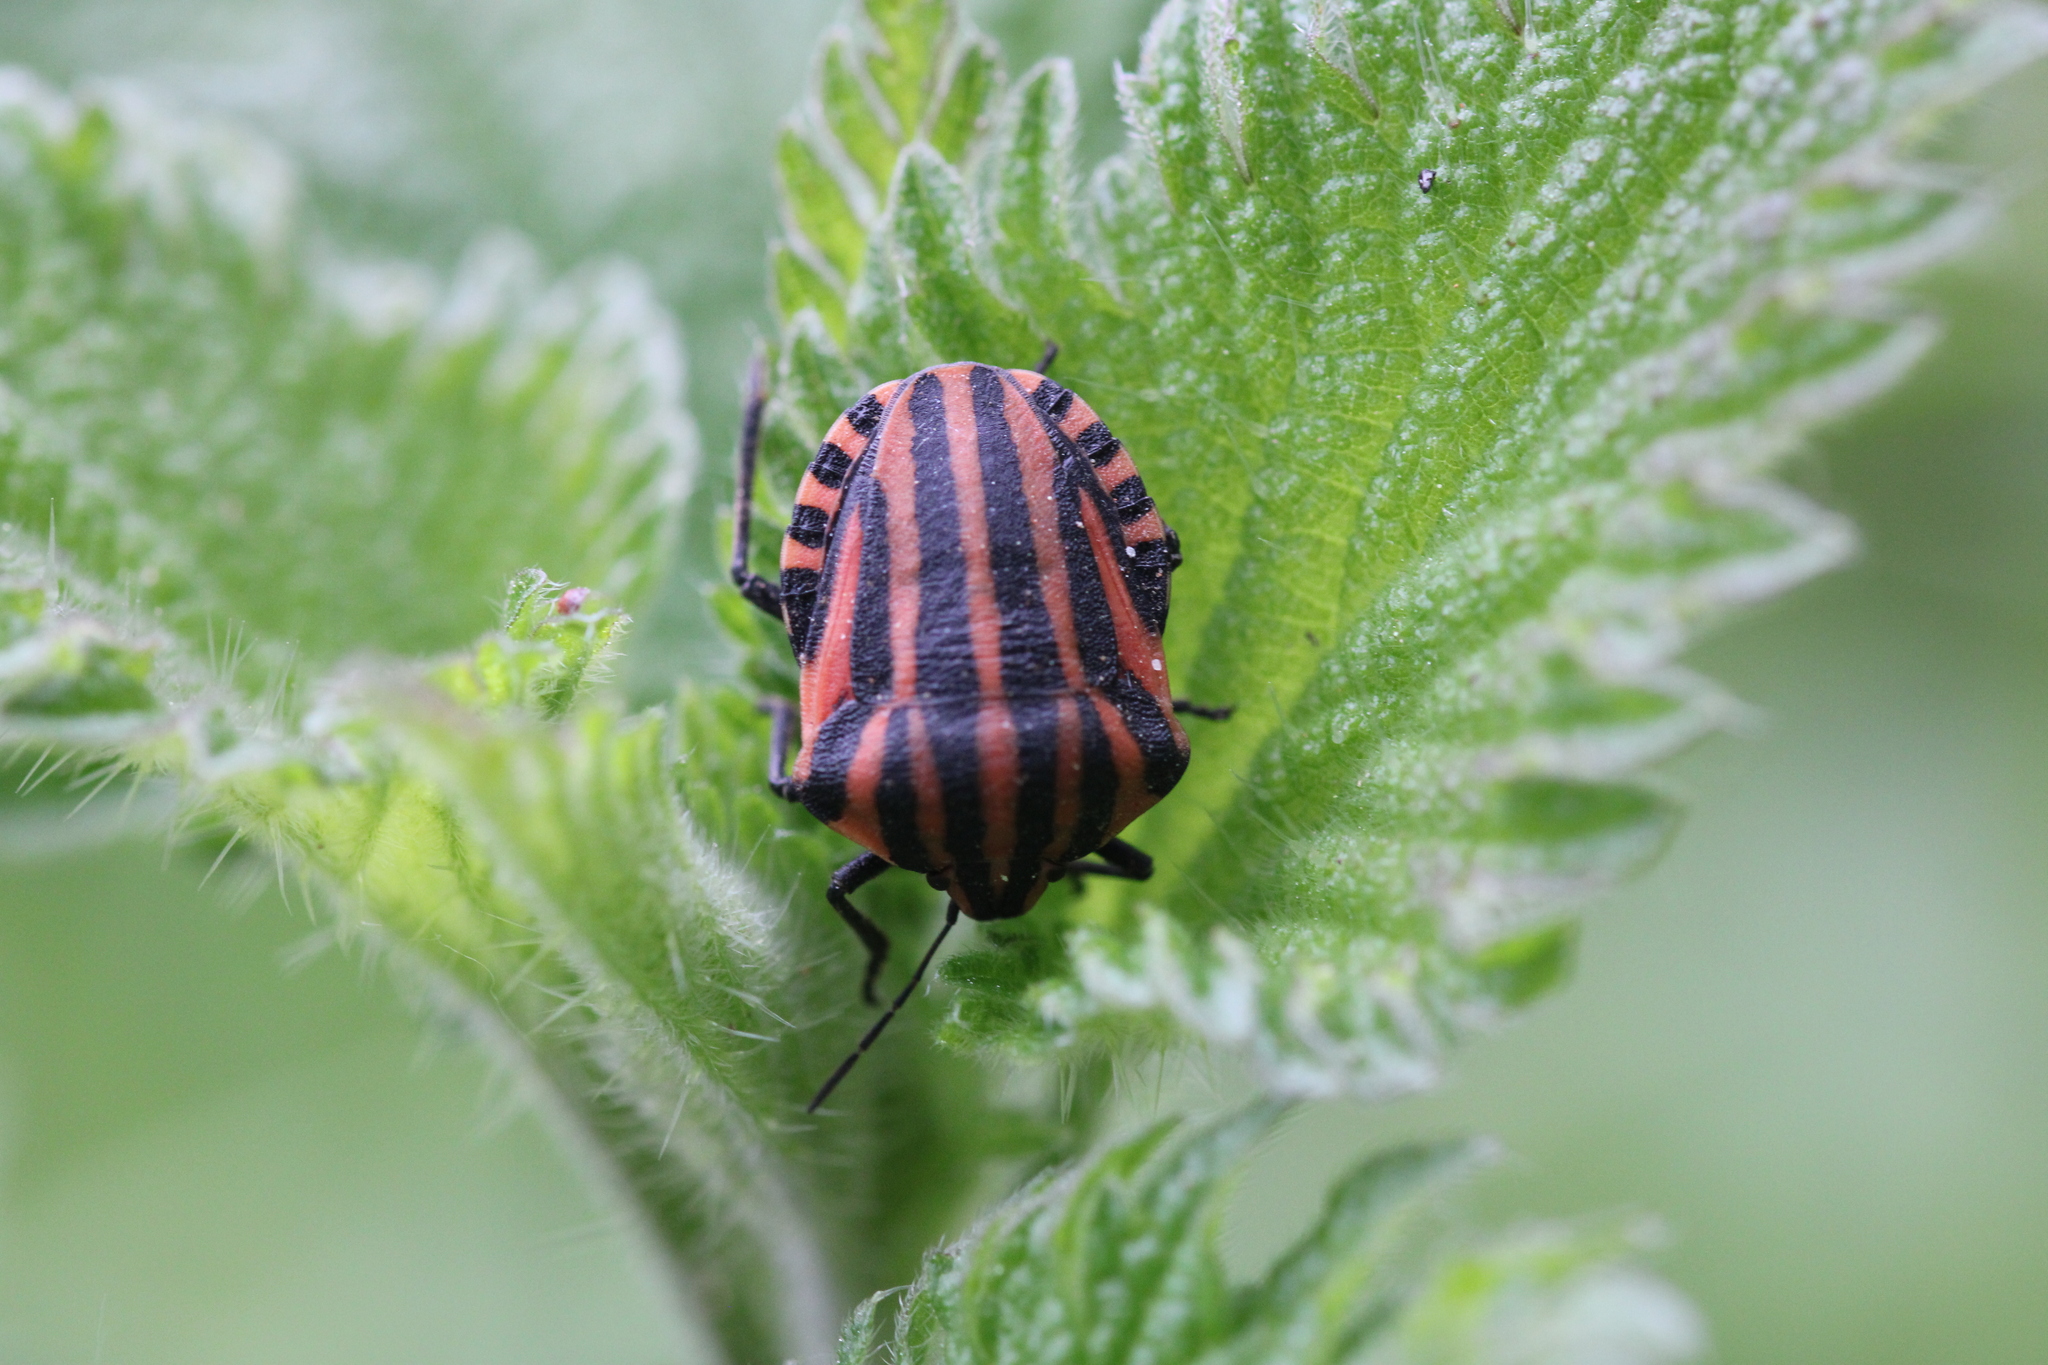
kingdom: Animalia
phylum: Arthropoda
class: Insecta
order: Hemiptera
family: Pentatomidae
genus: Graphosoma
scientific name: Graphosoma italicum
